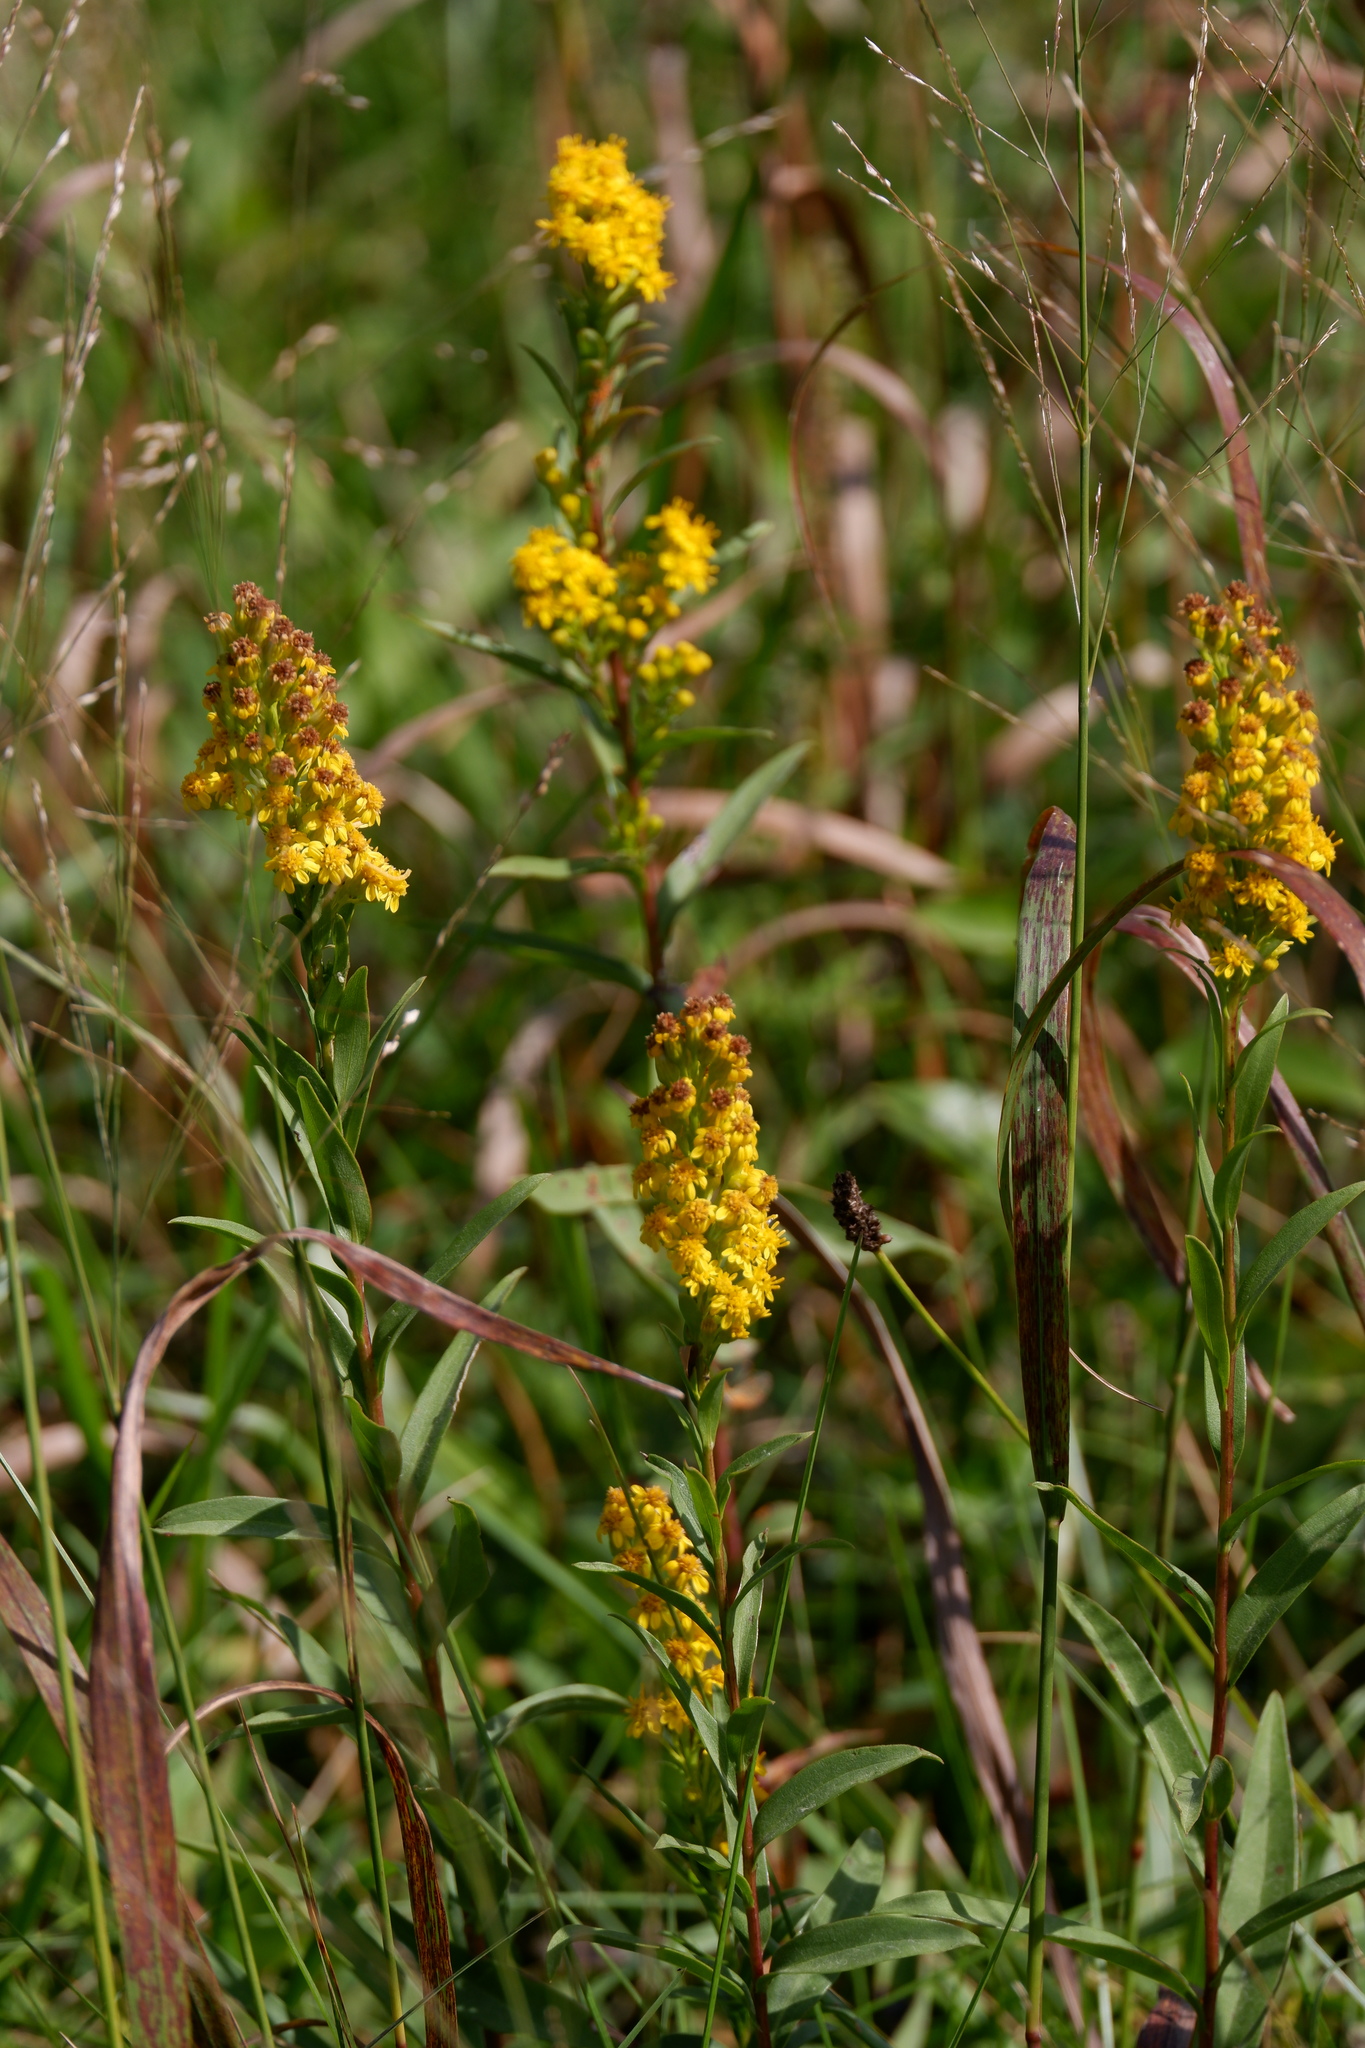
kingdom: Plantae
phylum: Tracheophyta
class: Magnoliopsida
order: Asterales
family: Asteraceae
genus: Solidago
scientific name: Solidago sempervirens
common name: Salt-marsh goldenrod
